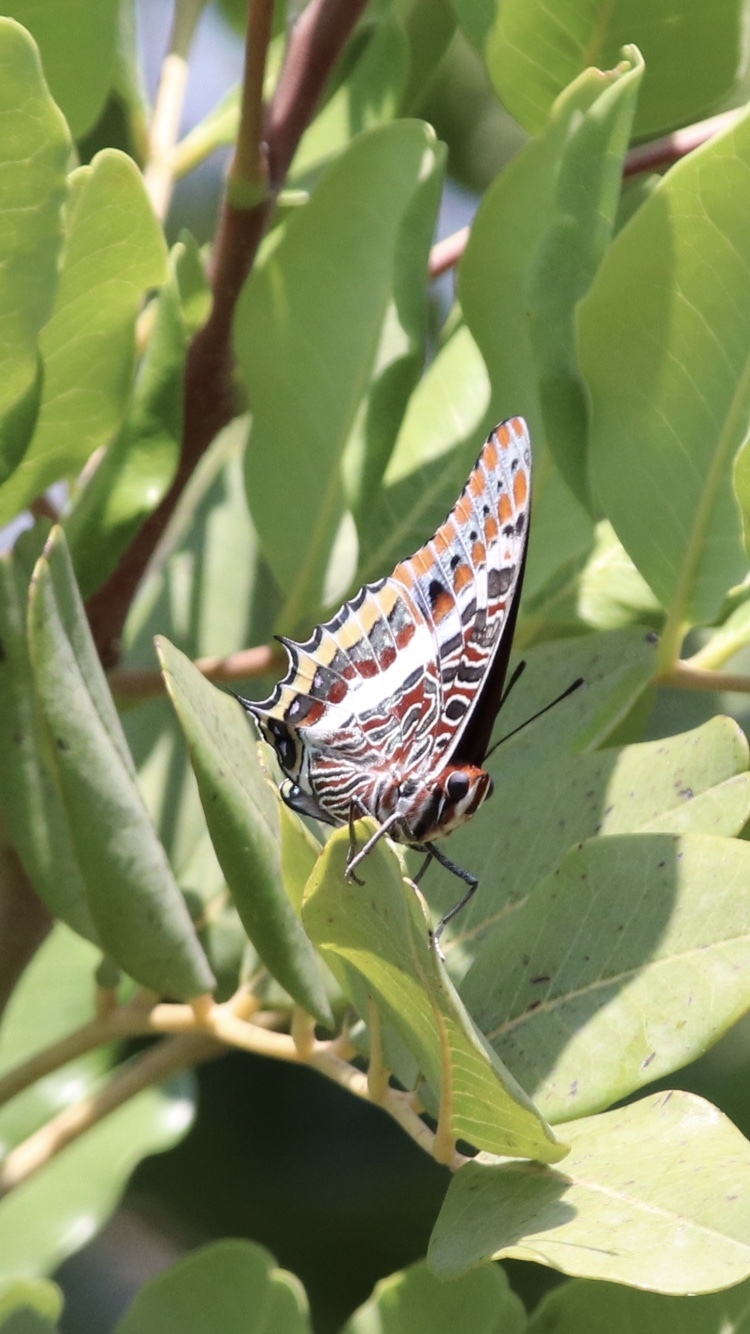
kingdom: Animalia
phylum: Arthropoda
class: Insecta
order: Lepidoptera
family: Nymphalidae
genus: Charaxes
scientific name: Charaxes jasius
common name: Two tailed pasha
